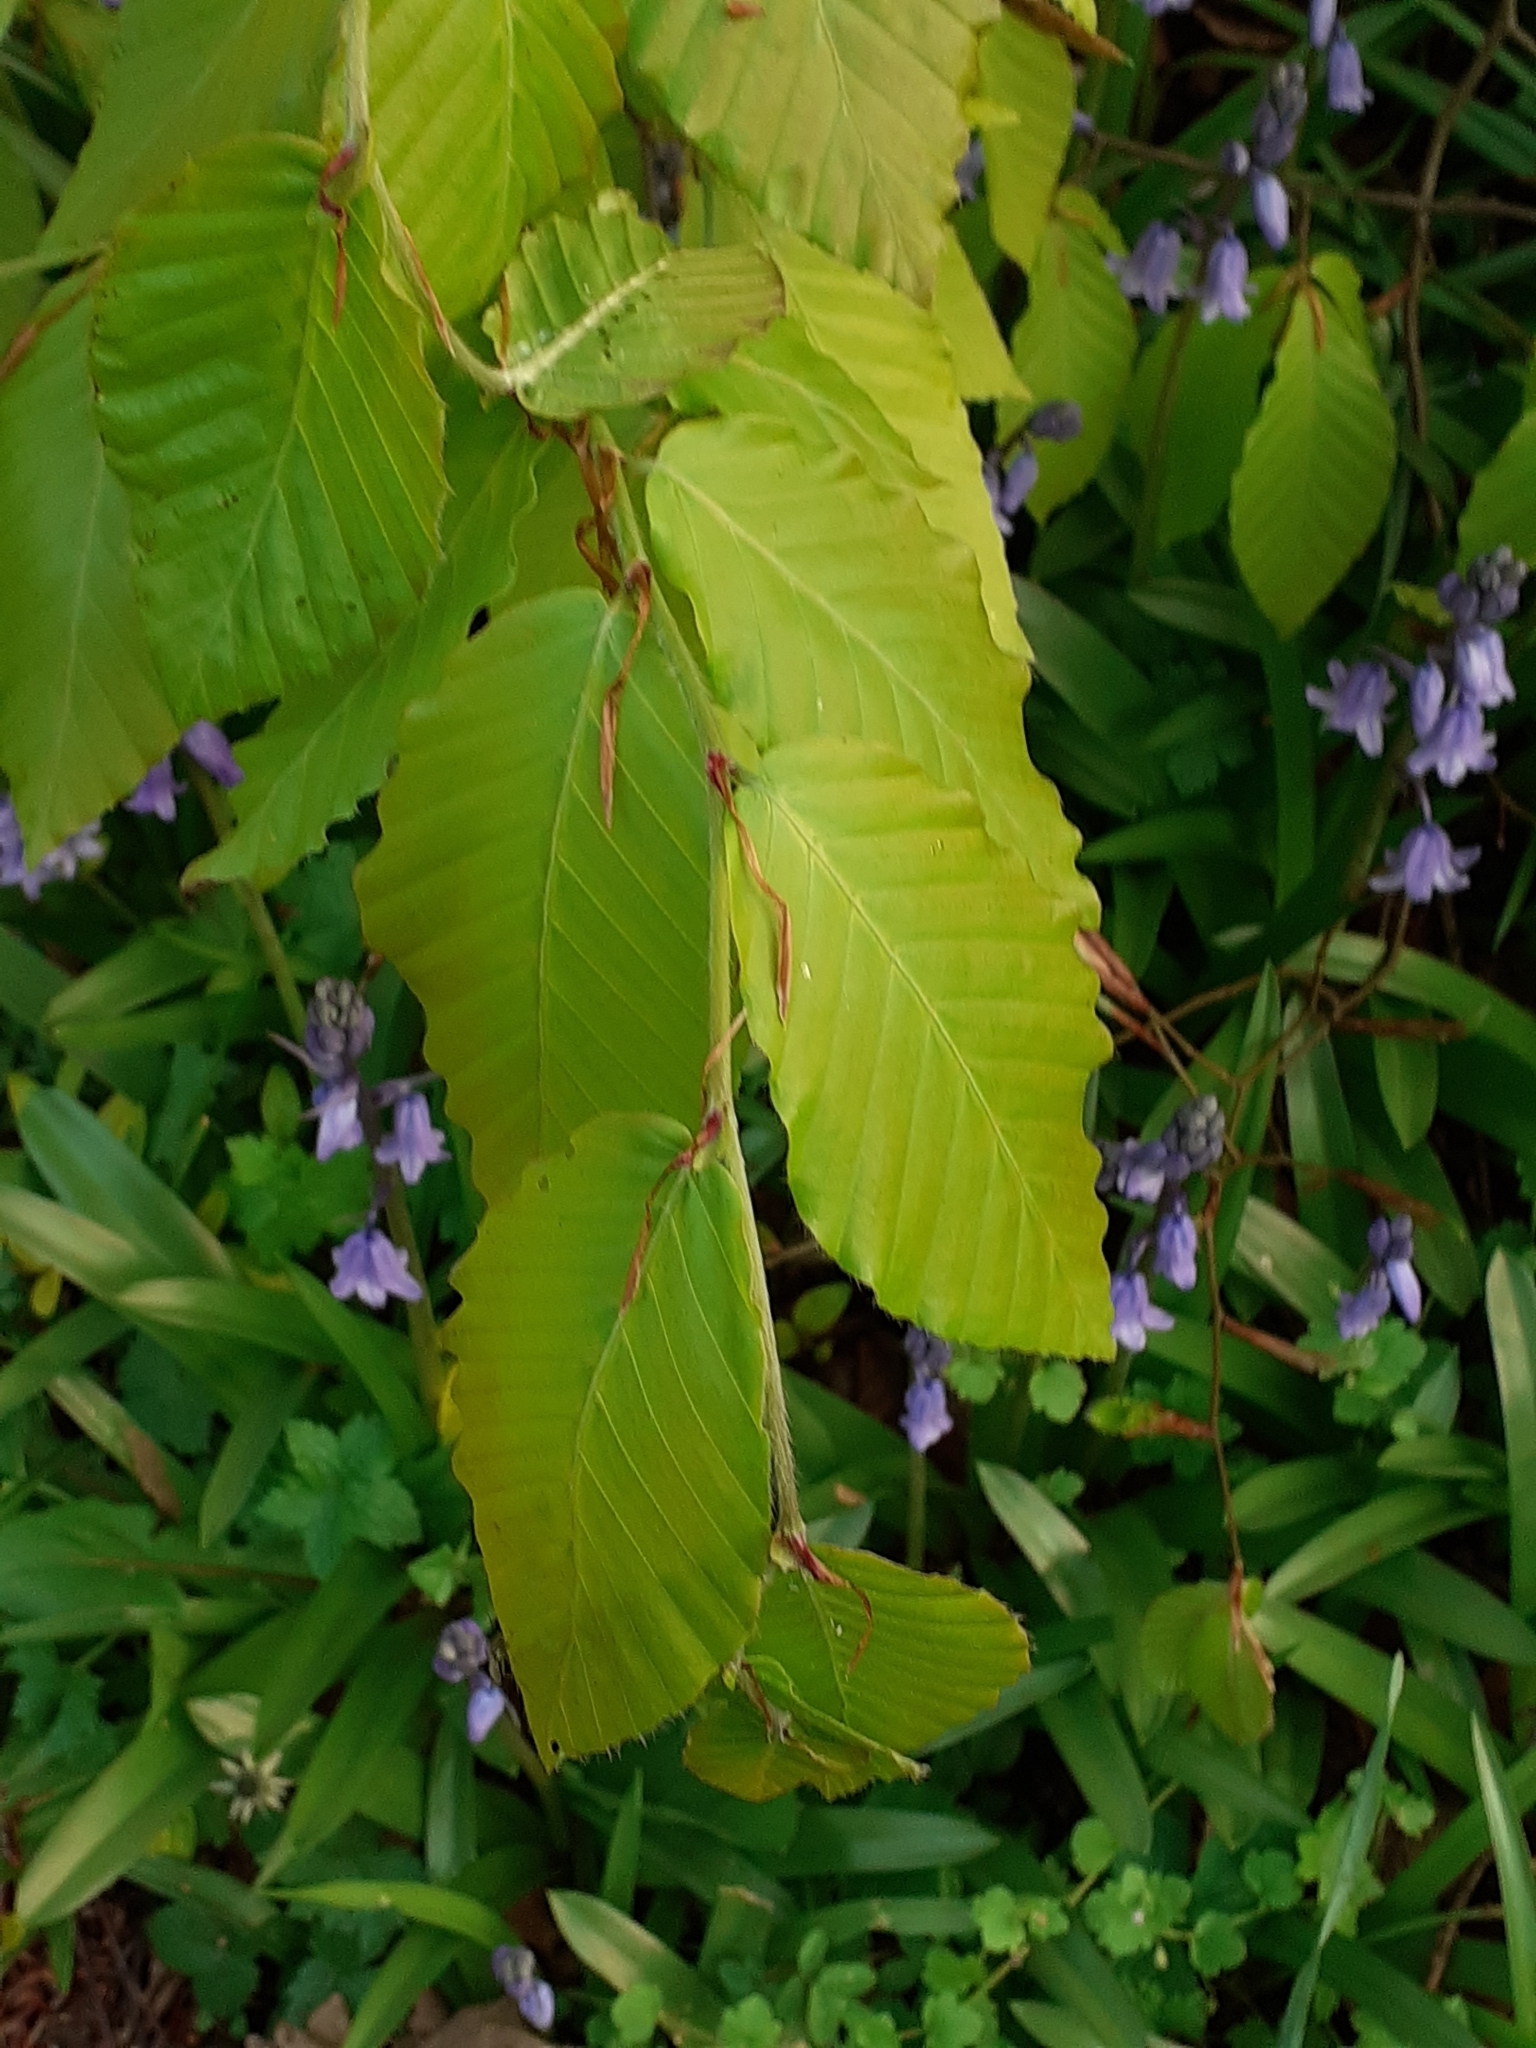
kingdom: Plantae
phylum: Tracheophyta
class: Magnoliopsida
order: Fagales
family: Fagaceae
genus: Fagus
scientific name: Fagus sylvatica
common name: Beech
